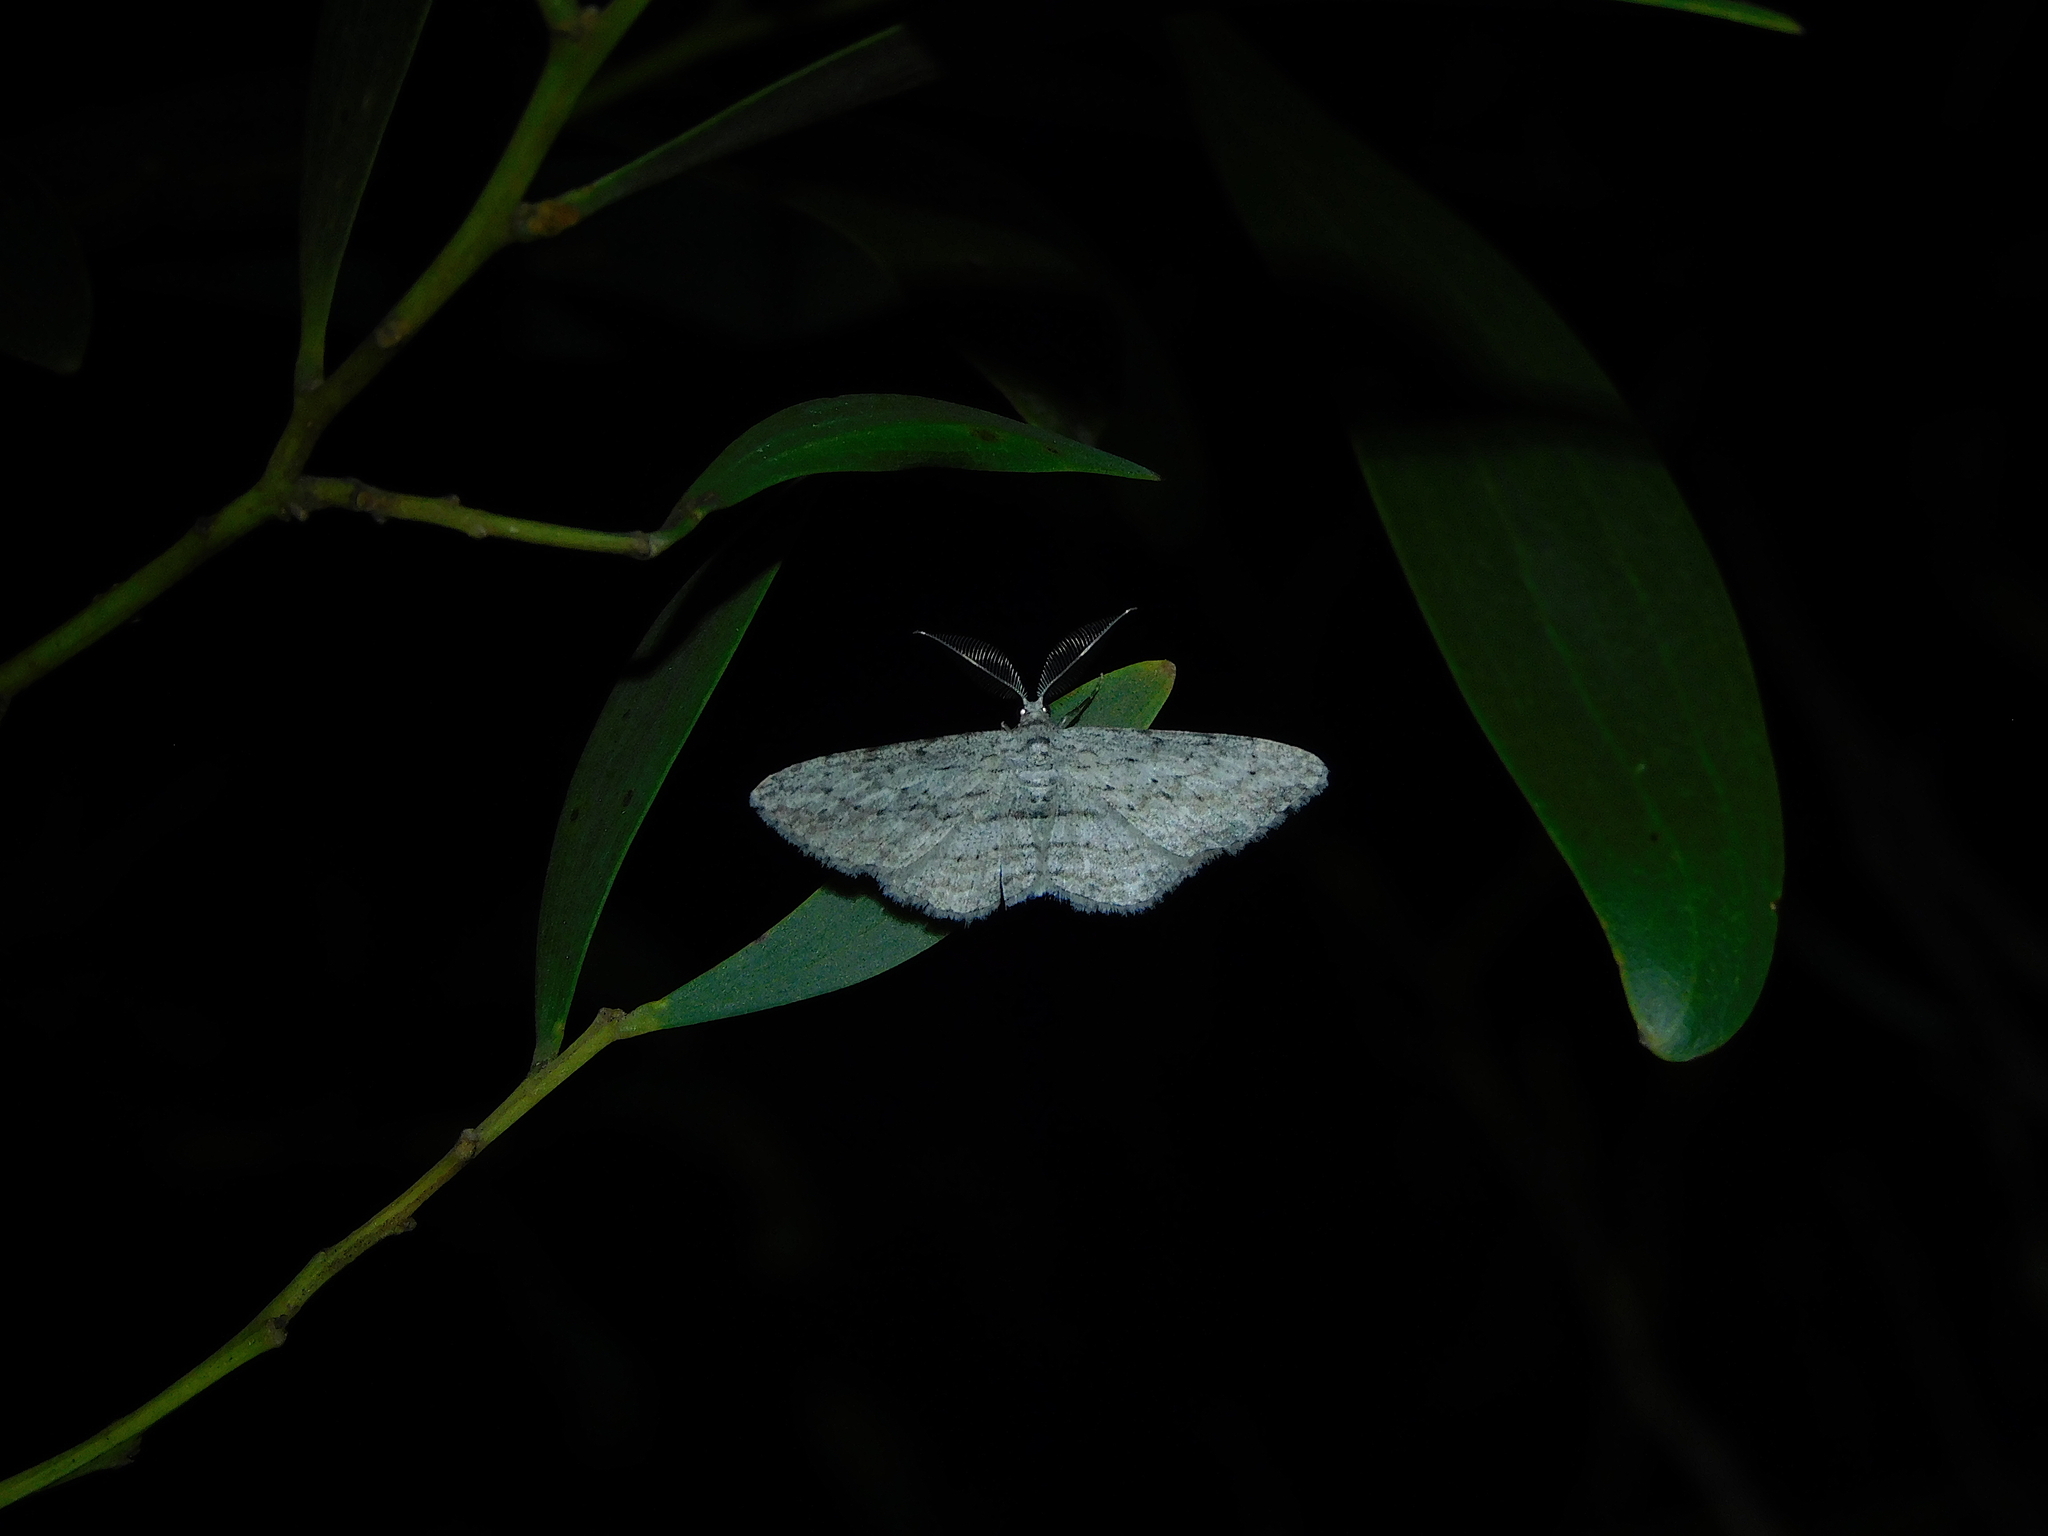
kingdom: Animalia
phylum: Arthropoda
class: Insecta
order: Lepidoptera
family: Geometridae
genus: Phelotis
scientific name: Phelotis cognata
